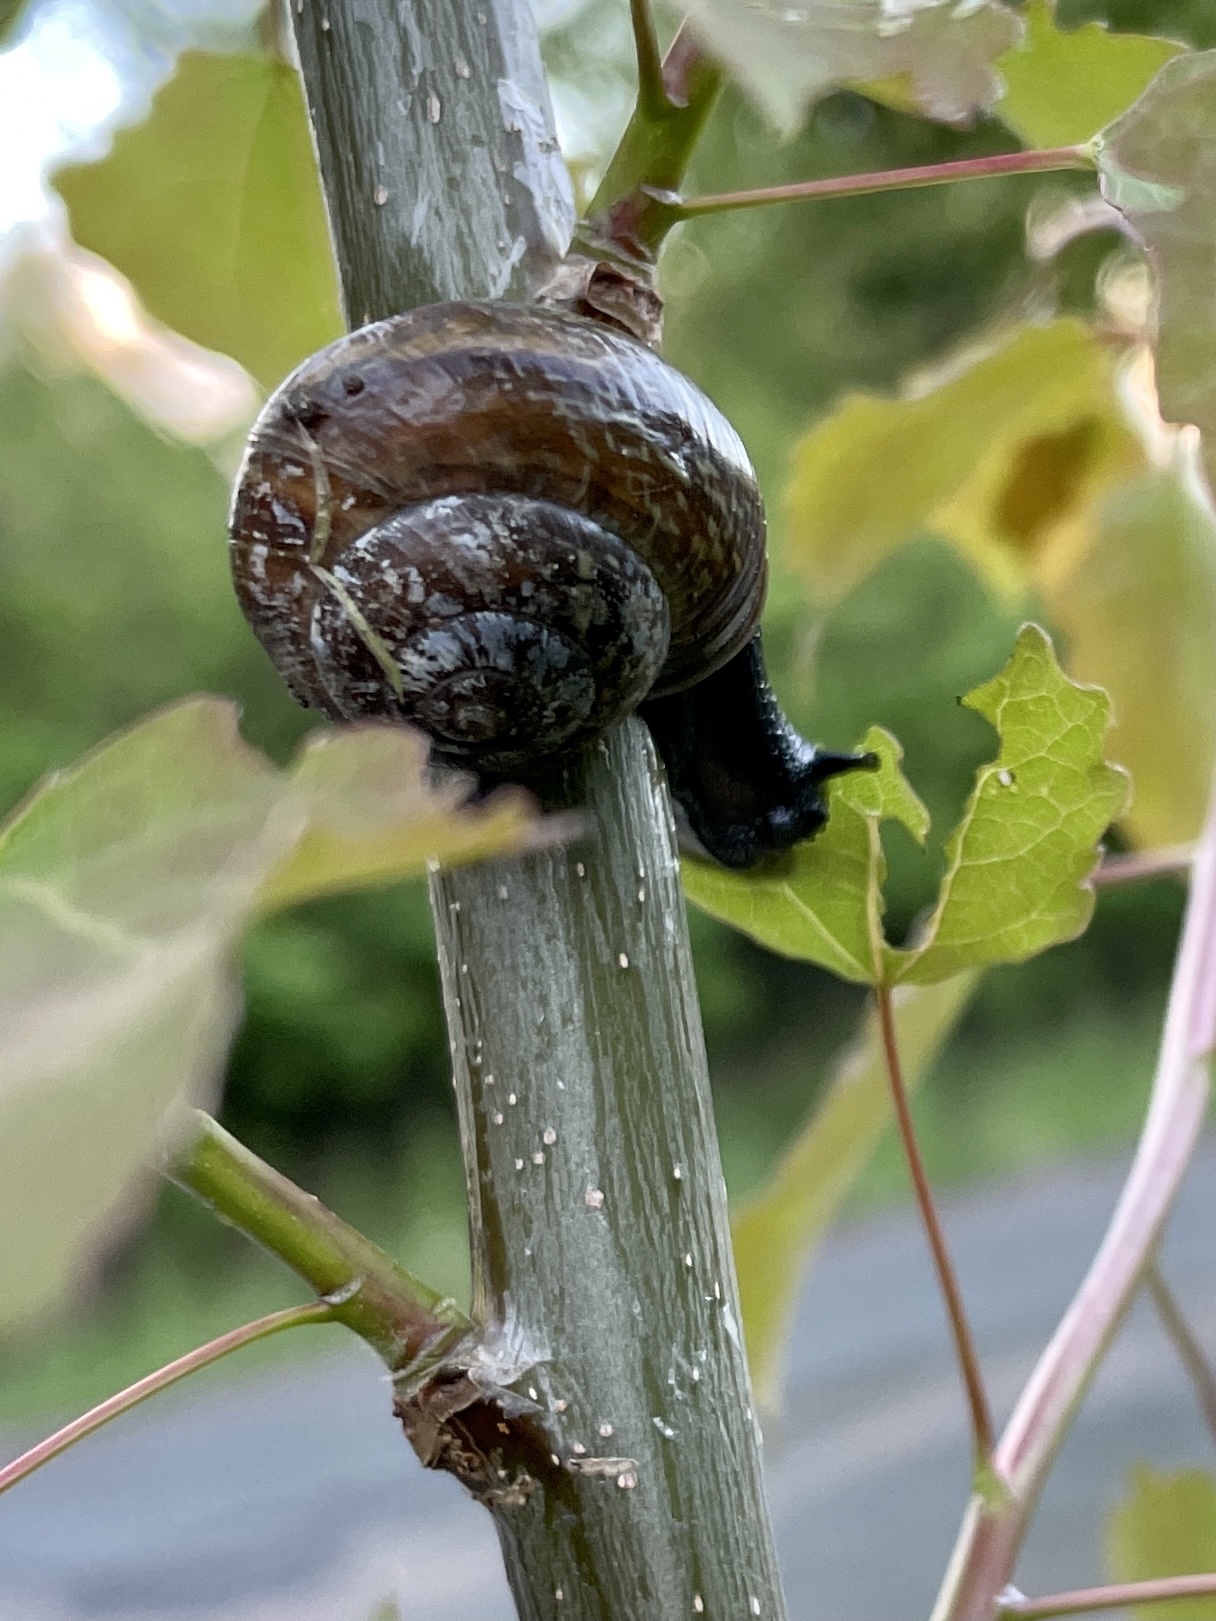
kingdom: Animalia
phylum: Mollusca
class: Gastropoda
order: Stylommatophora
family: Helicidae
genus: Arianta
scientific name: Arianta arbustorum
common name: Copse snail
